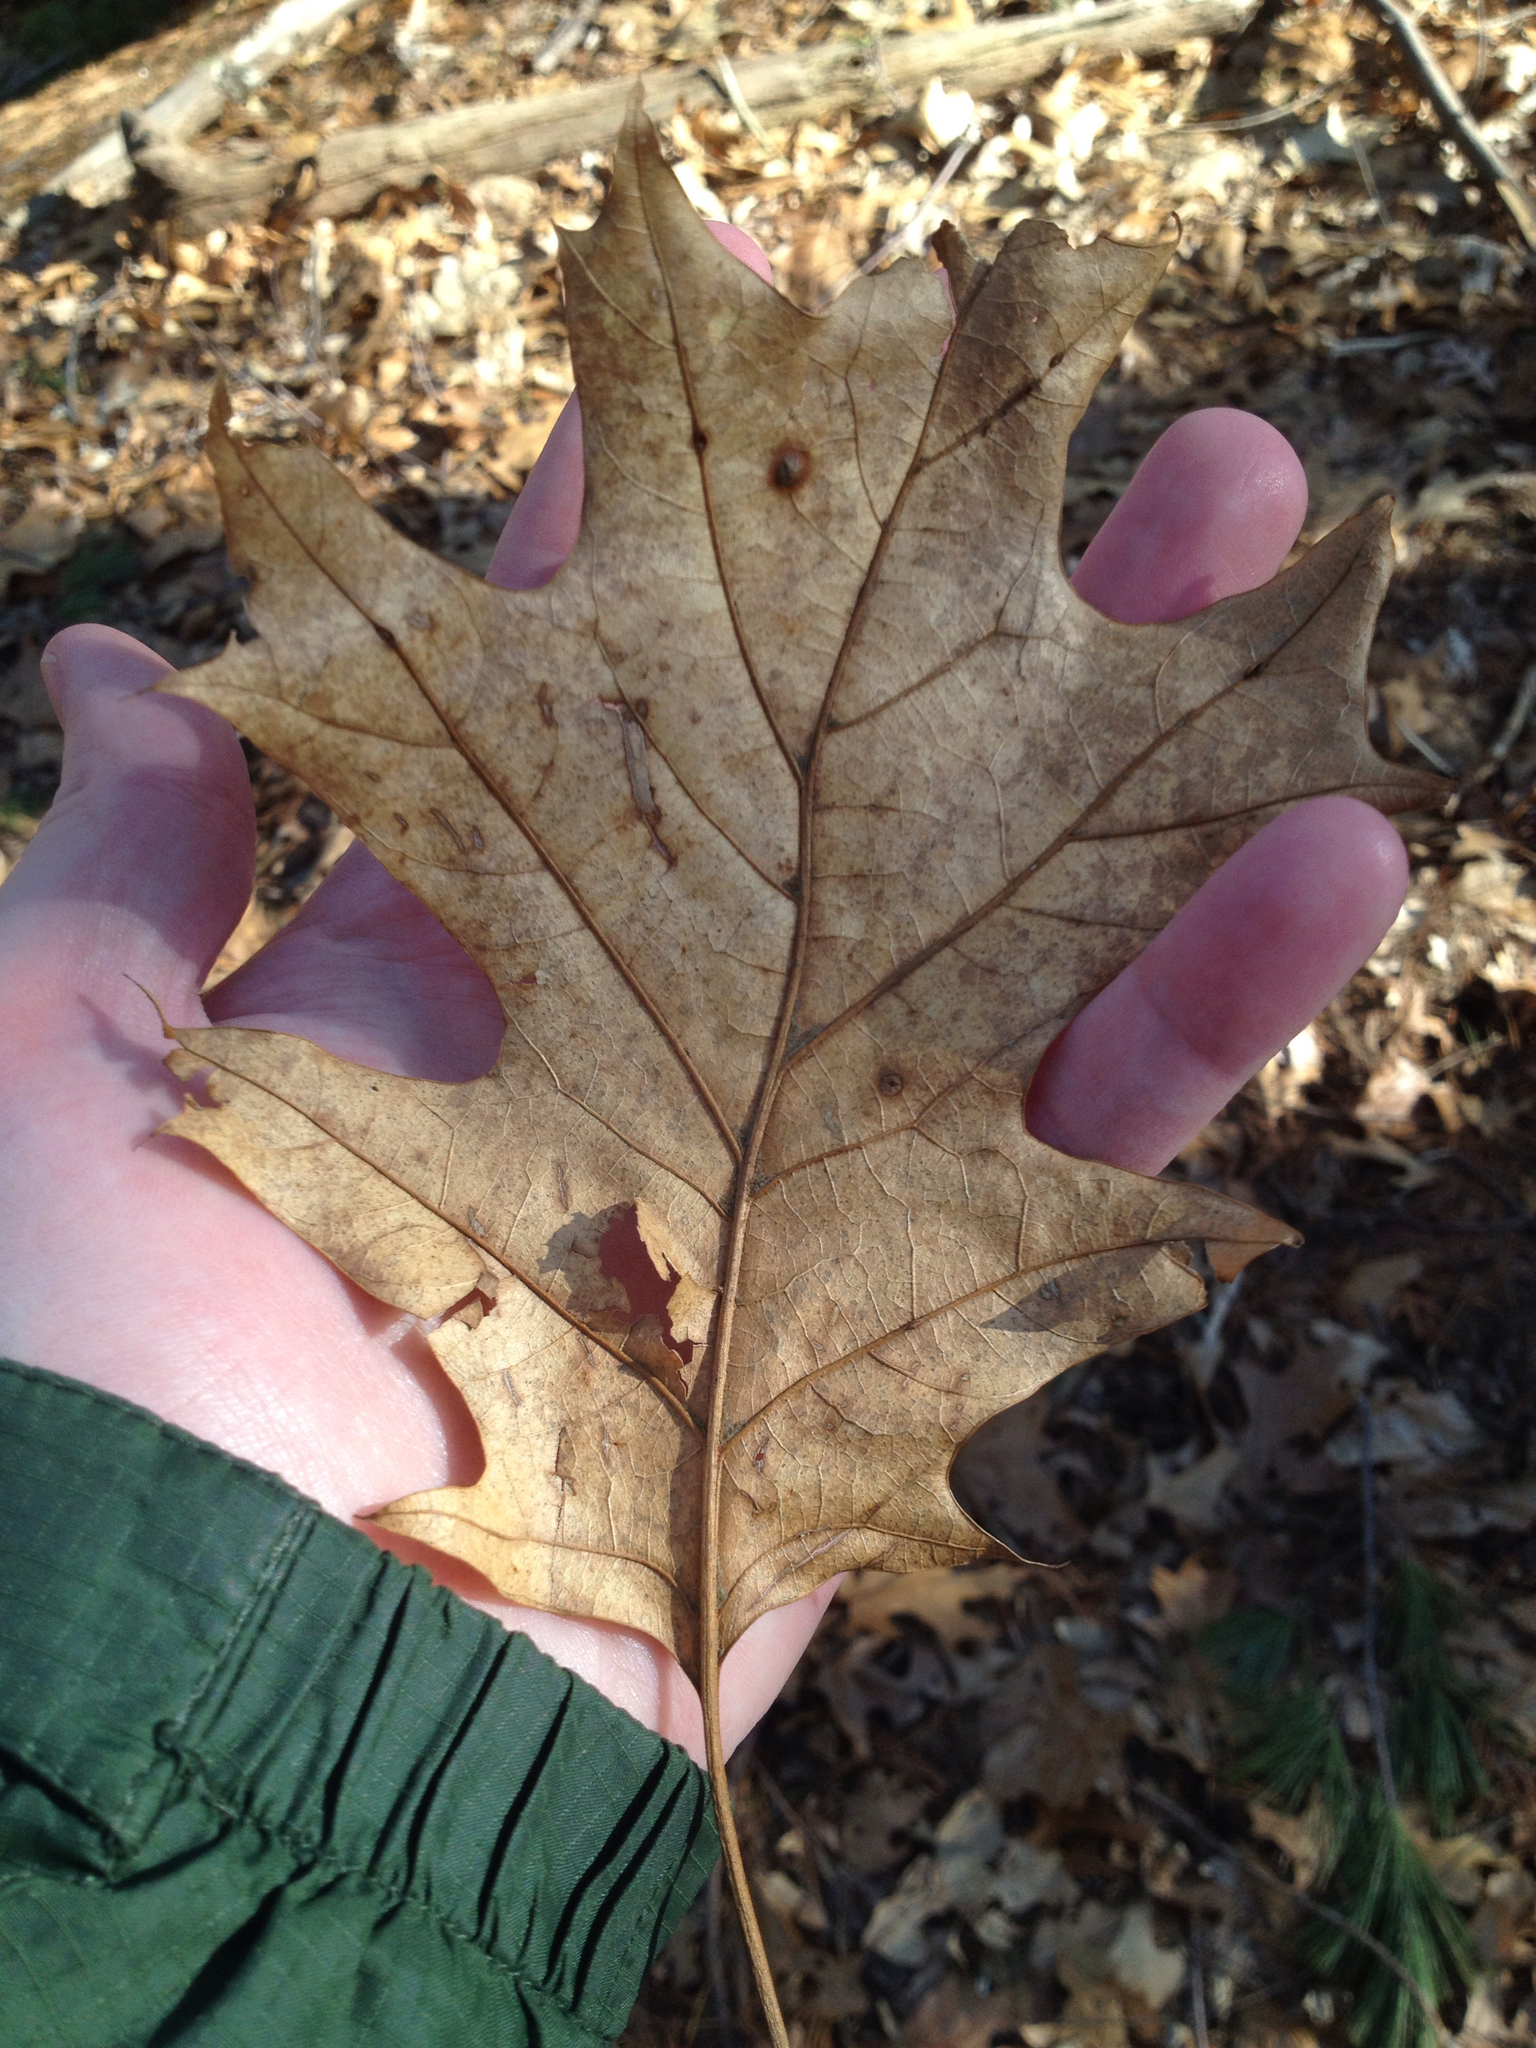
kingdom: Plantae
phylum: Tracheophyta
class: Magnoliopsida
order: Fagales
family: Fagaceae
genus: Quercus
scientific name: Quercus rubra
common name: Red oak
